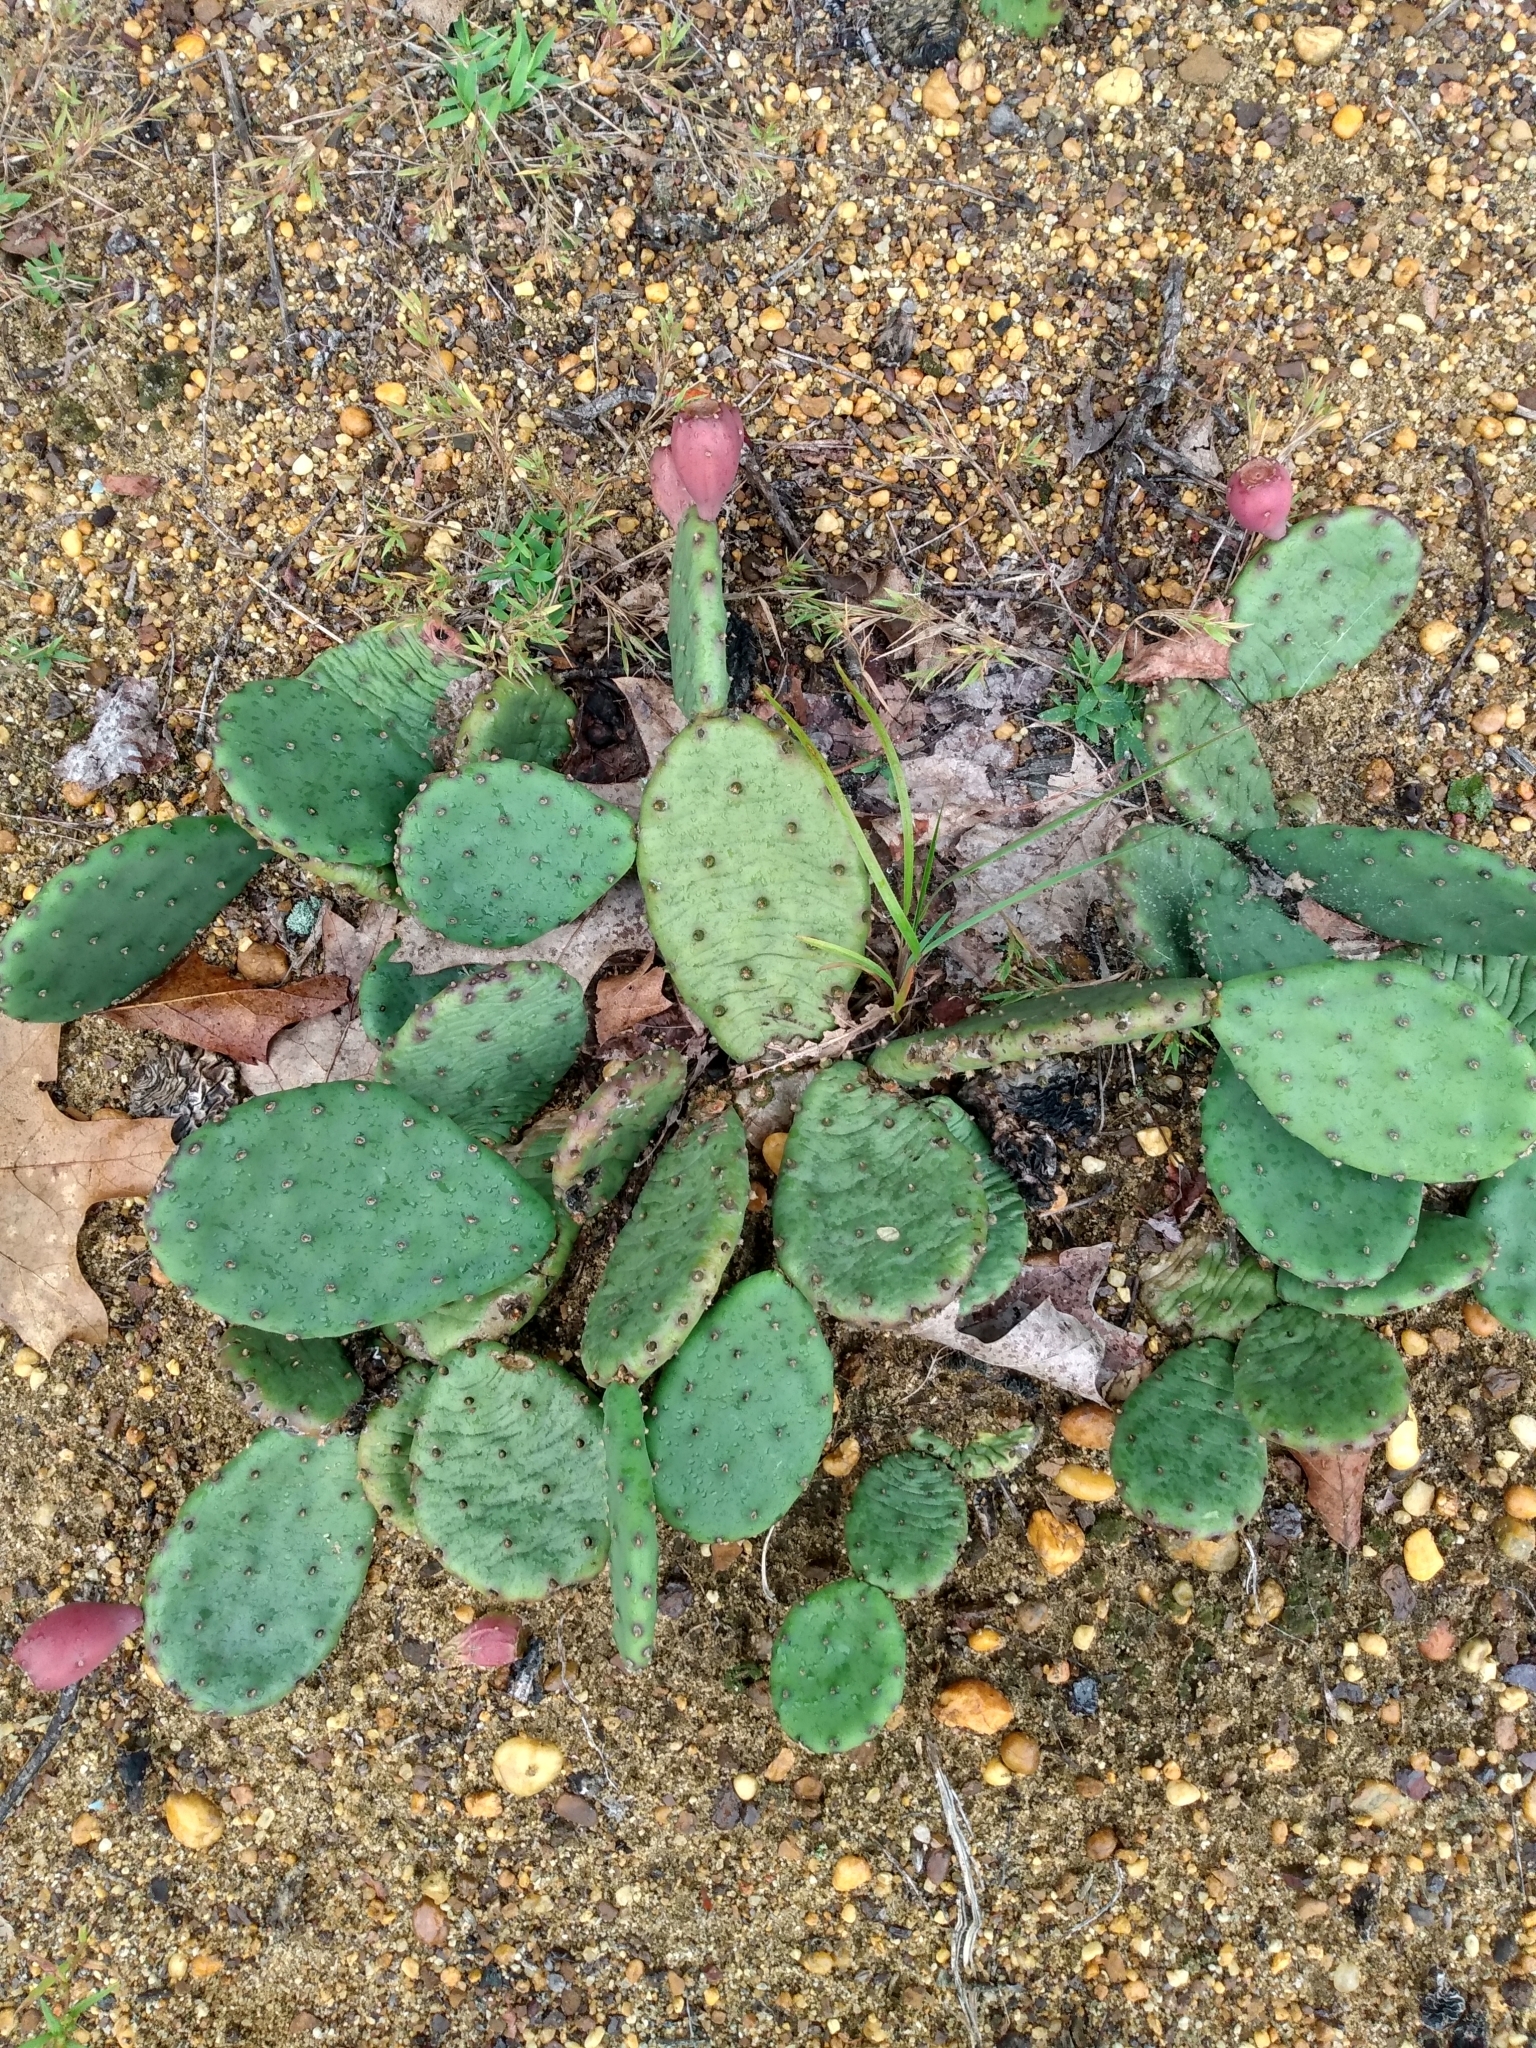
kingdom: Plantae
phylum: Tracheophyta
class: Magnoliopsida
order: Caryophyllales
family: Cactaceae
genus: Opuntia
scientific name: Opuntia humifusa
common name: Eastern prickly-pear
